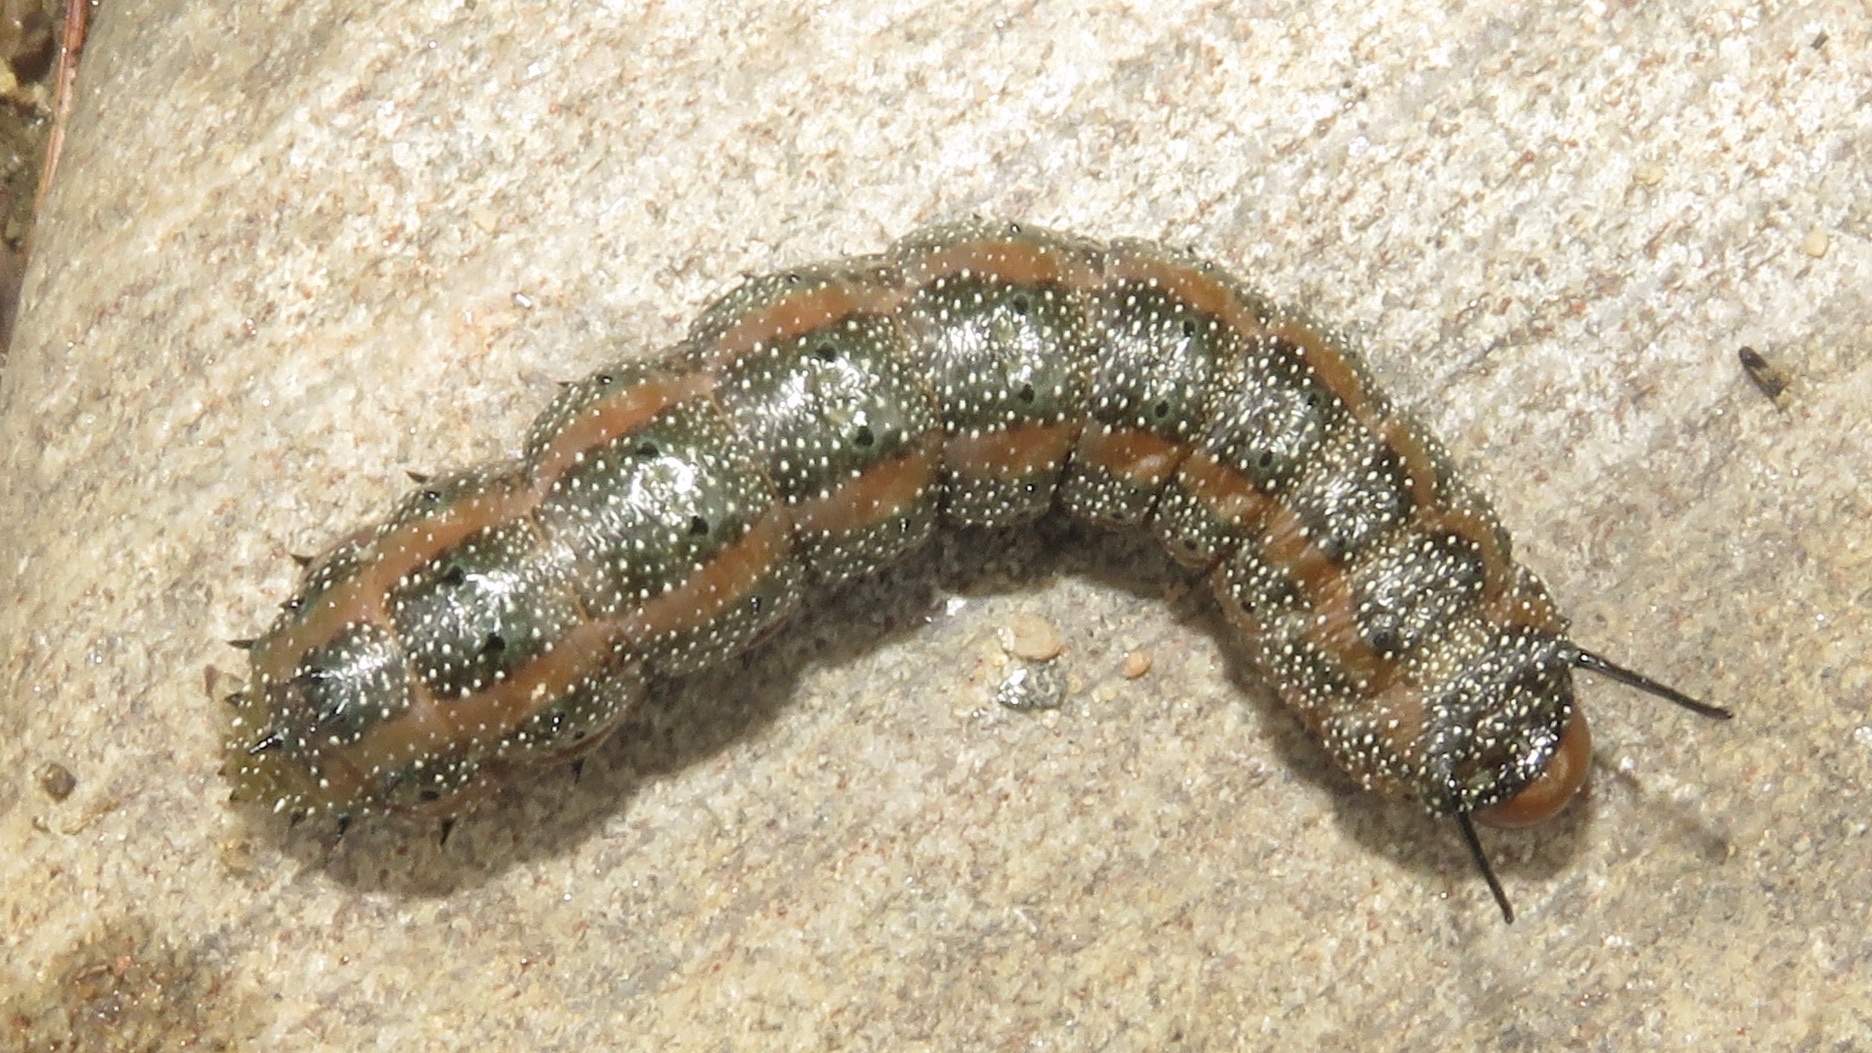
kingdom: Animalia
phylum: Arthropoda
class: Insecta
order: Lepidoptera
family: Saturniidae
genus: Anisota
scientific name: Anisota virginiensis
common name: Pink striped oakworm moth
